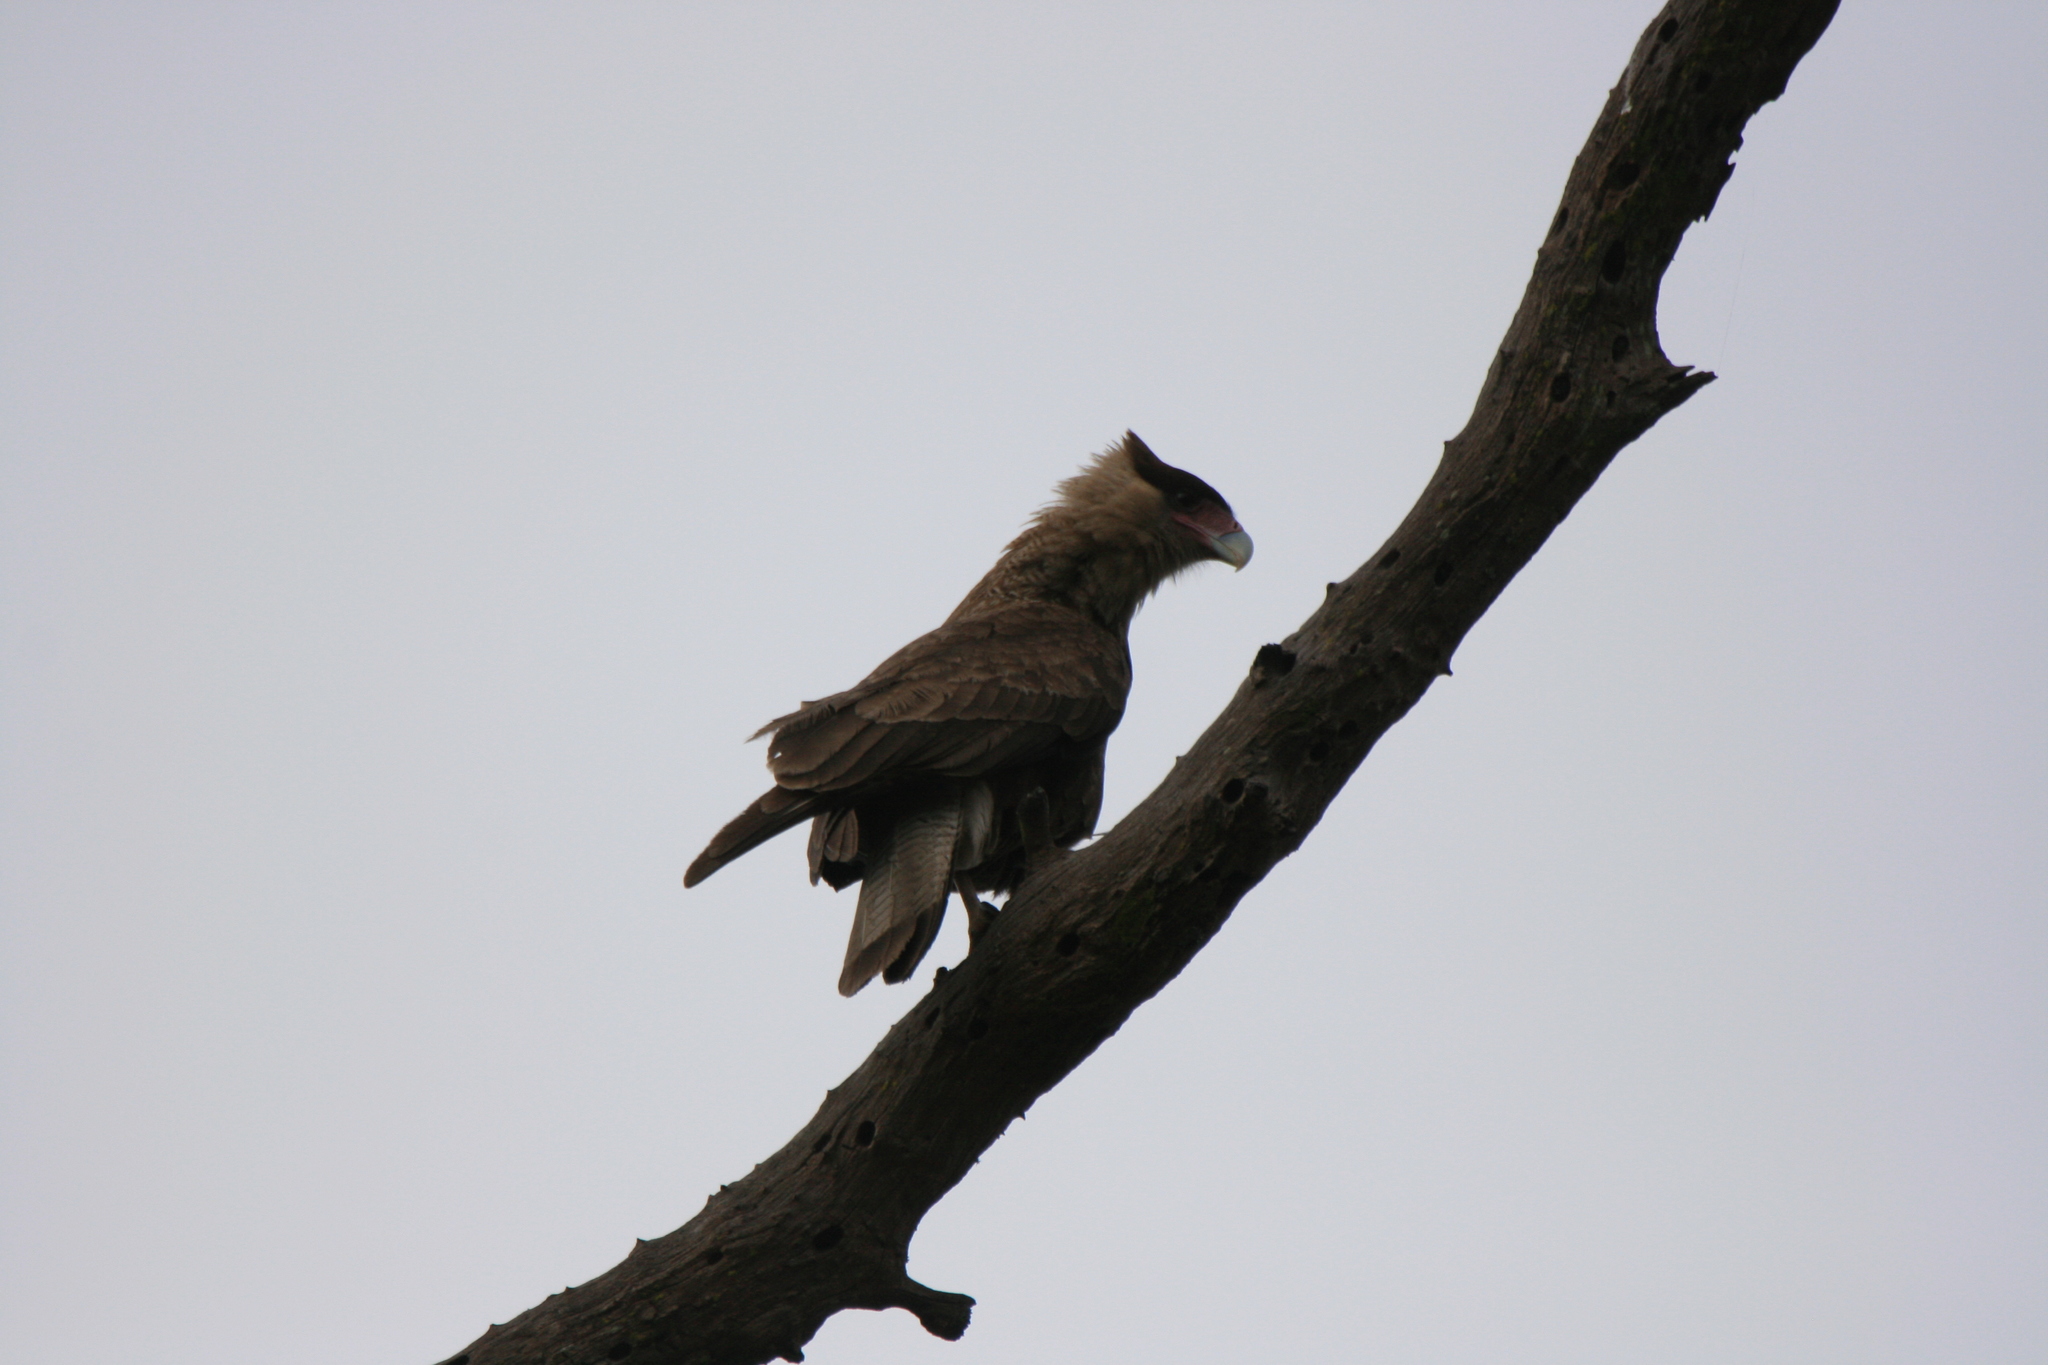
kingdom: Animalia
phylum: Chordata
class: Aves
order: Falconiformes
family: Falconidae
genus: Caracara
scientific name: Caracara plancus
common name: Southern caracara
